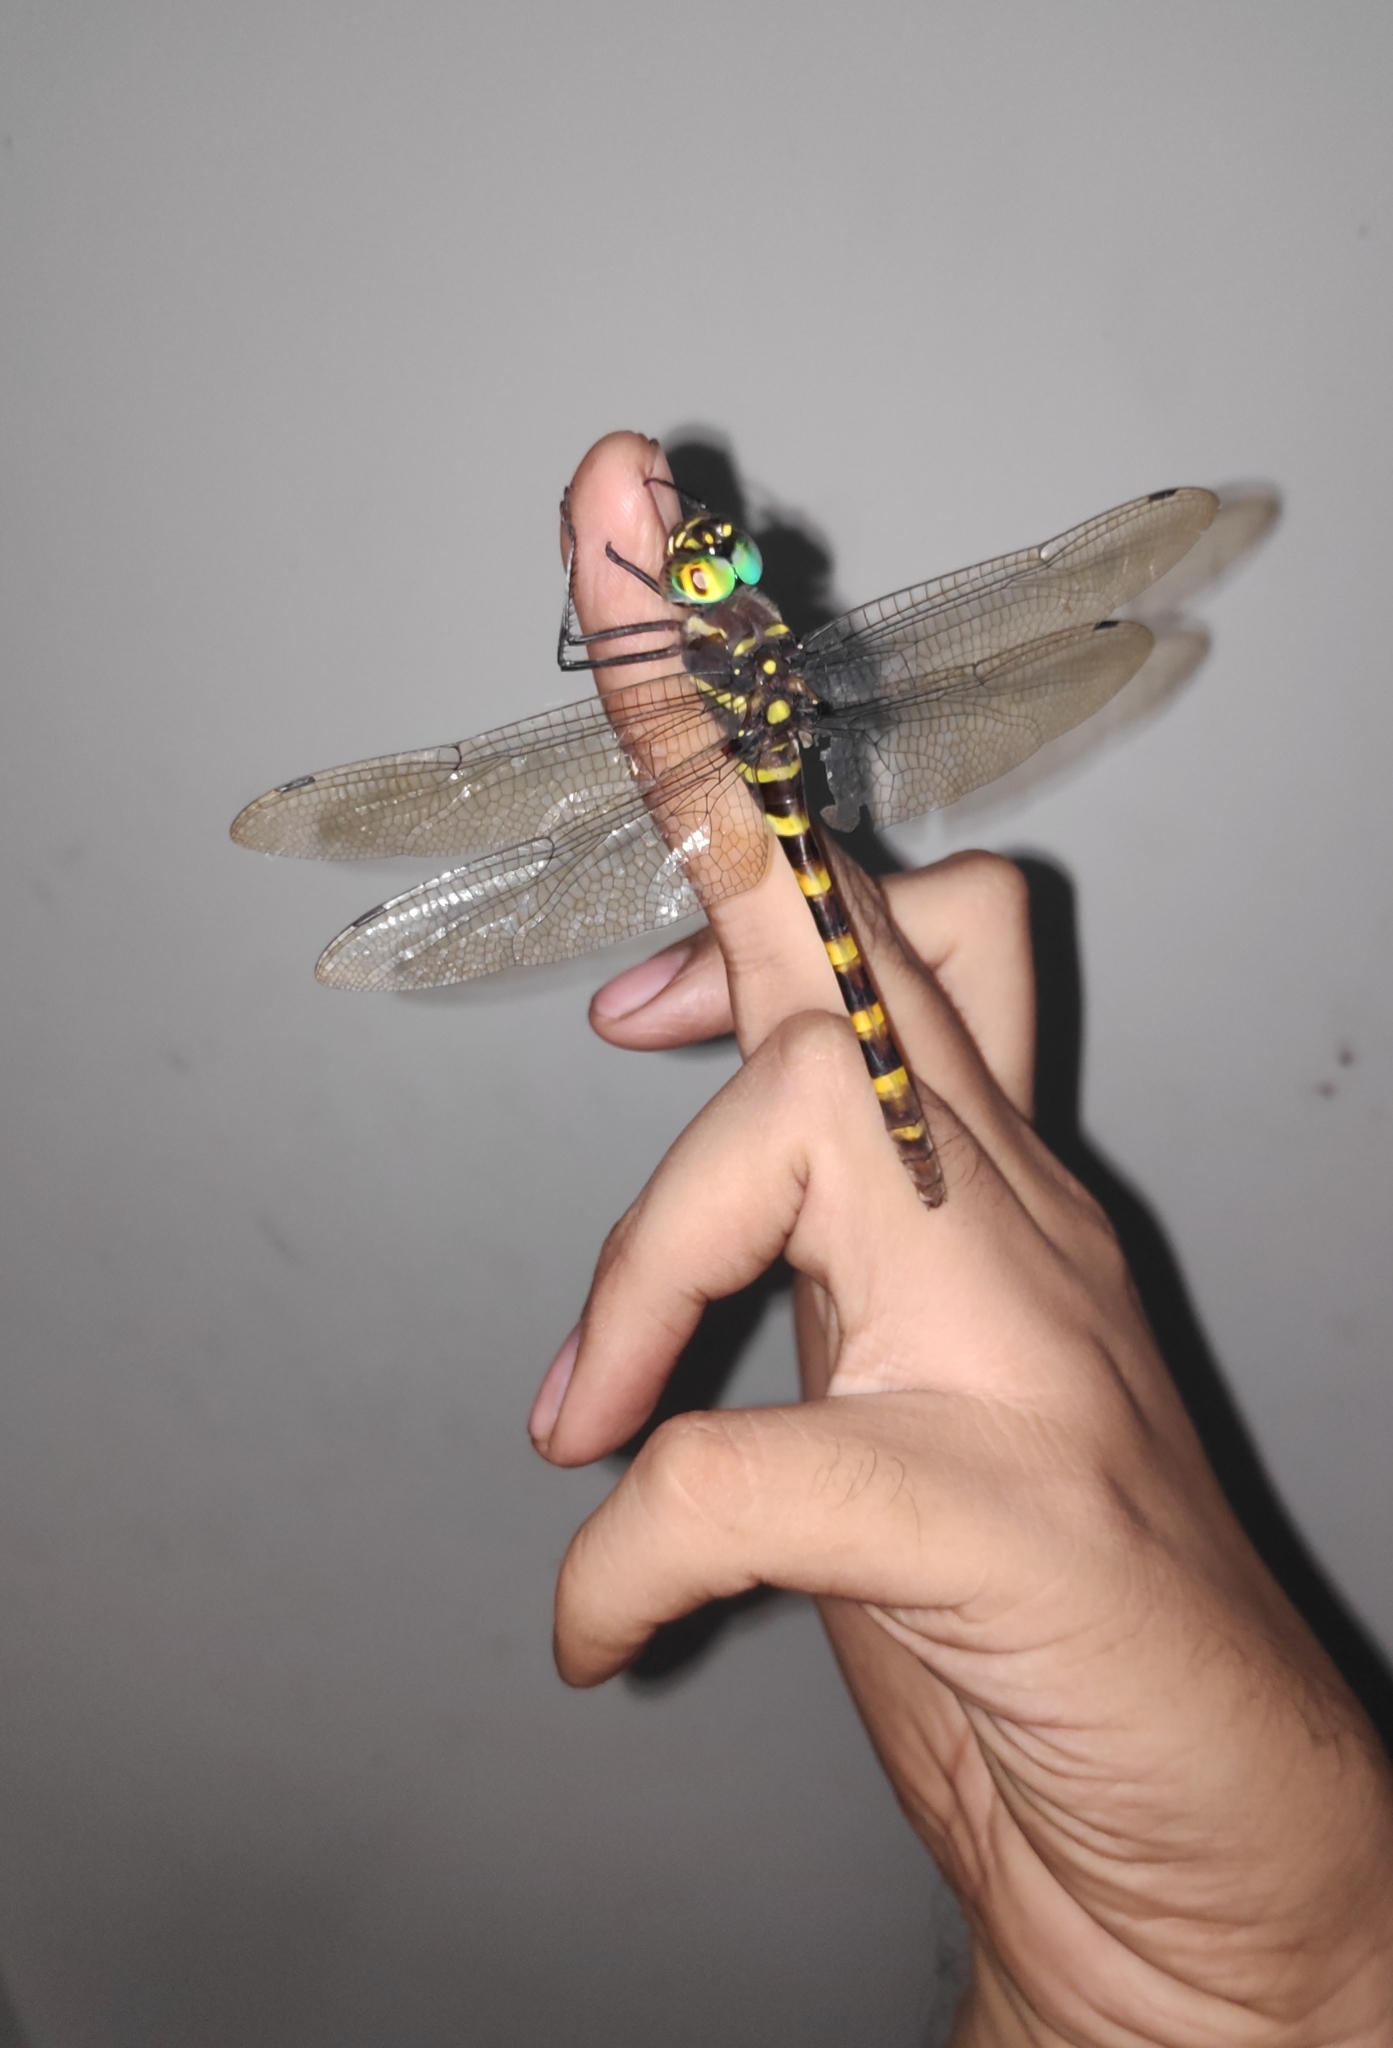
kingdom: Animalia
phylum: Arthropoda
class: Insecta
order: Odonata
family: Macromiidae
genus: Epophthalmia
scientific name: Epophthalmia vittata
